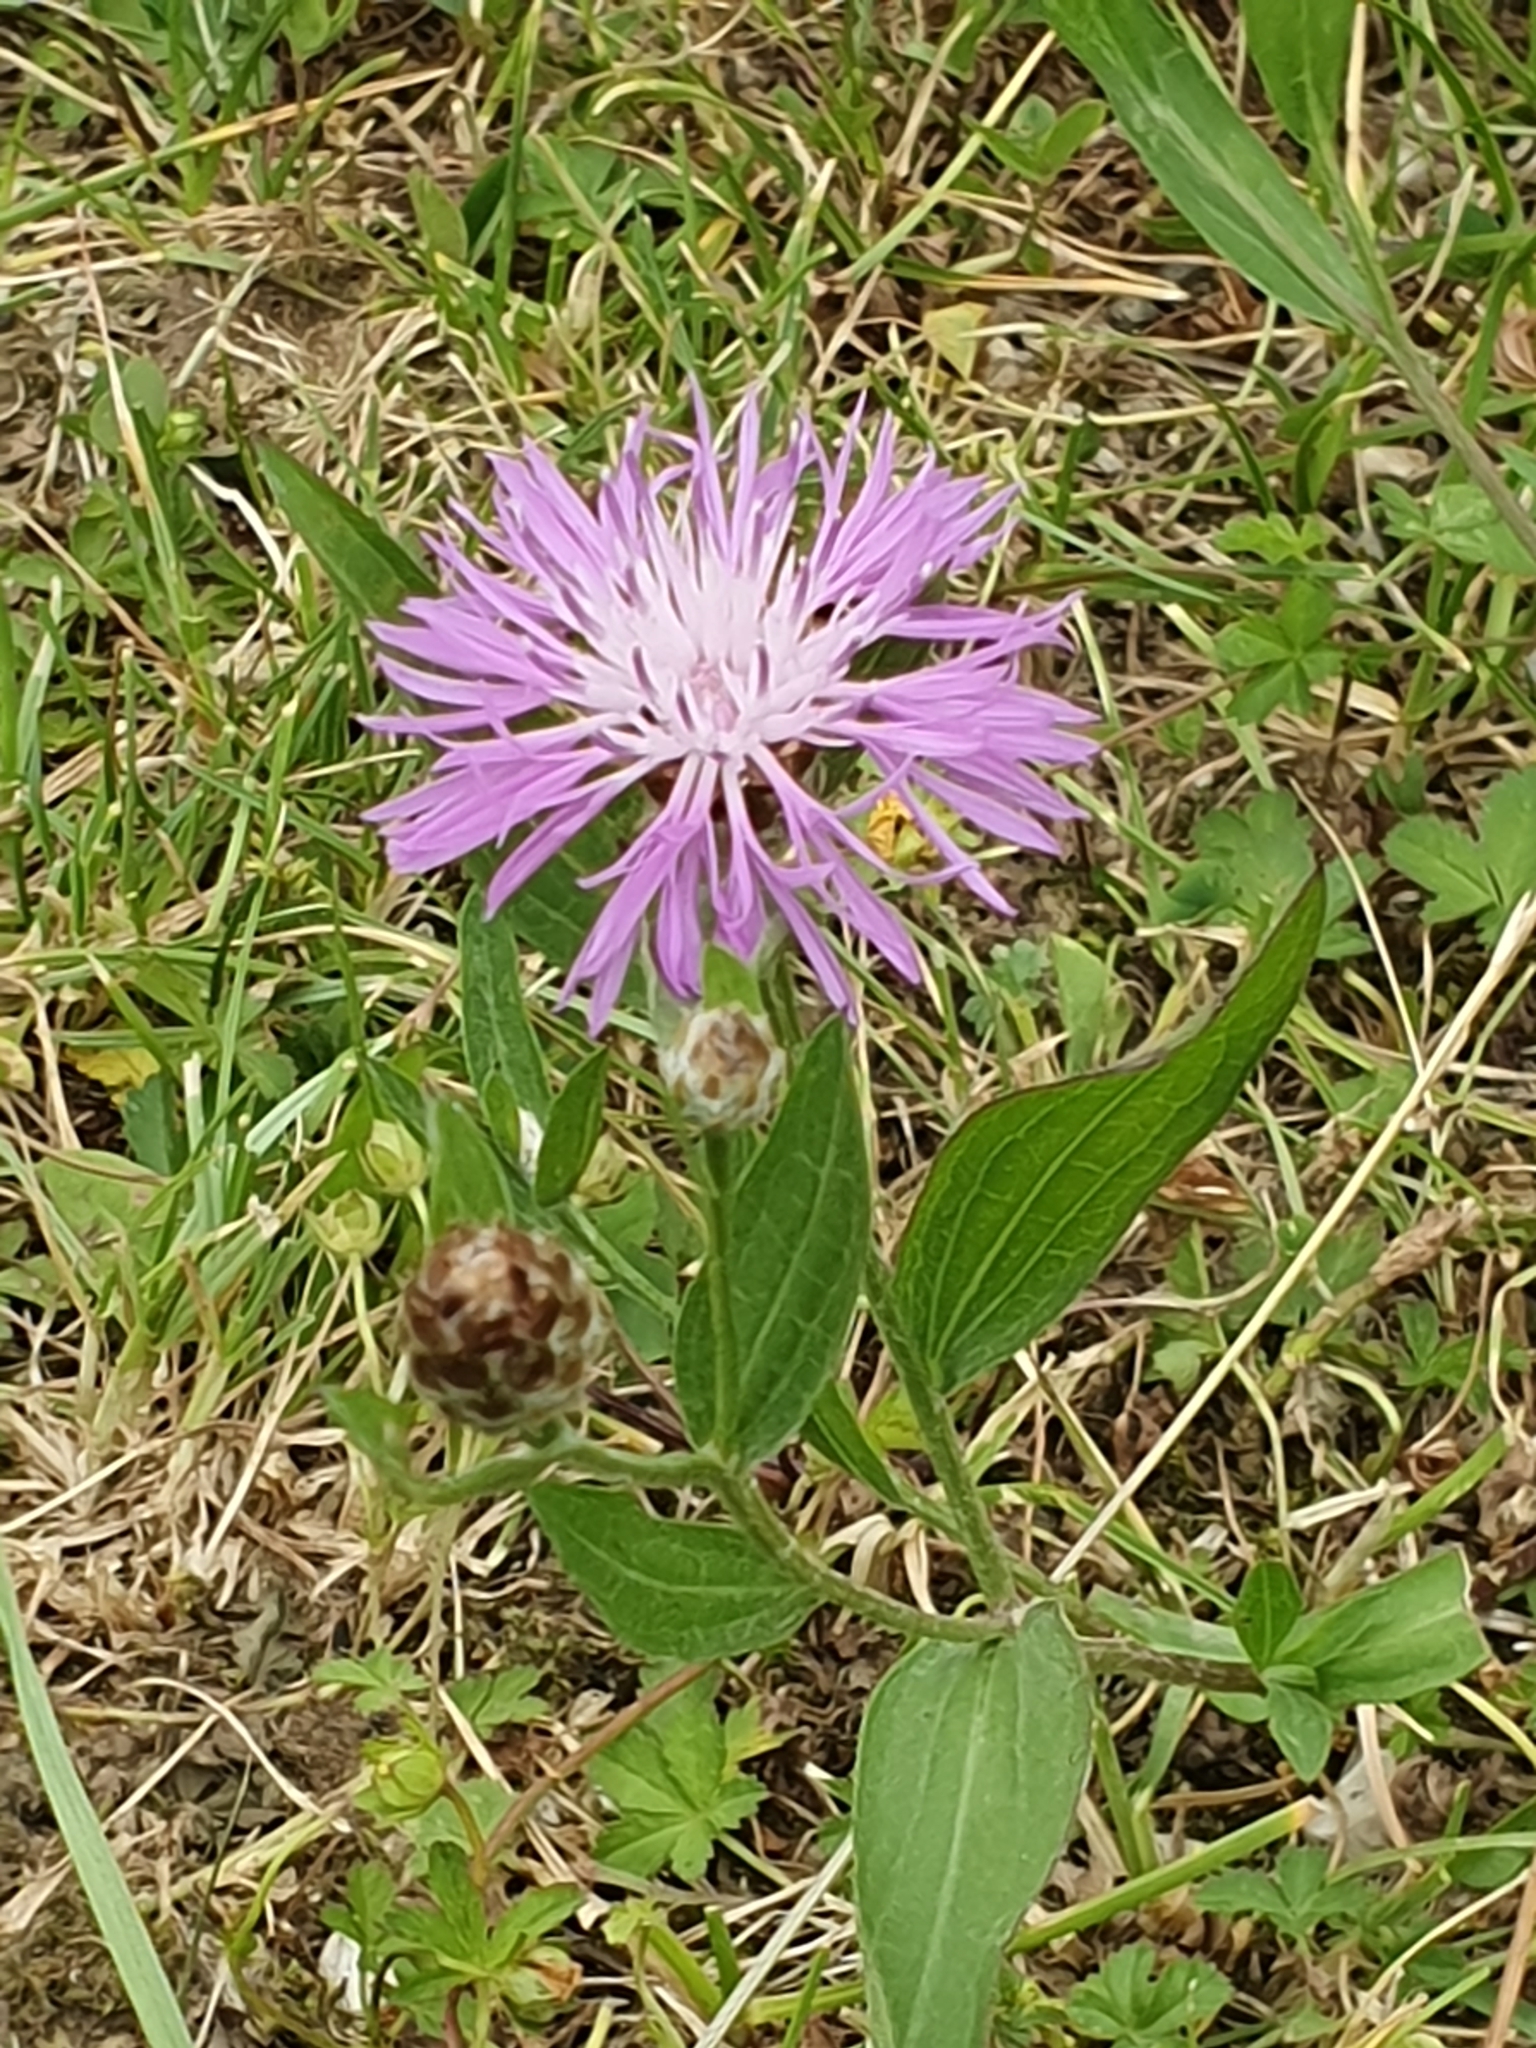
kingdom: Plantae
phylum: Tracheophyta
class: Magnoliopsida
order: Asterales
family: Asteraceae
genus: Centaurea
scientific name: Centaurea jacea
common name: Brown knapweed
